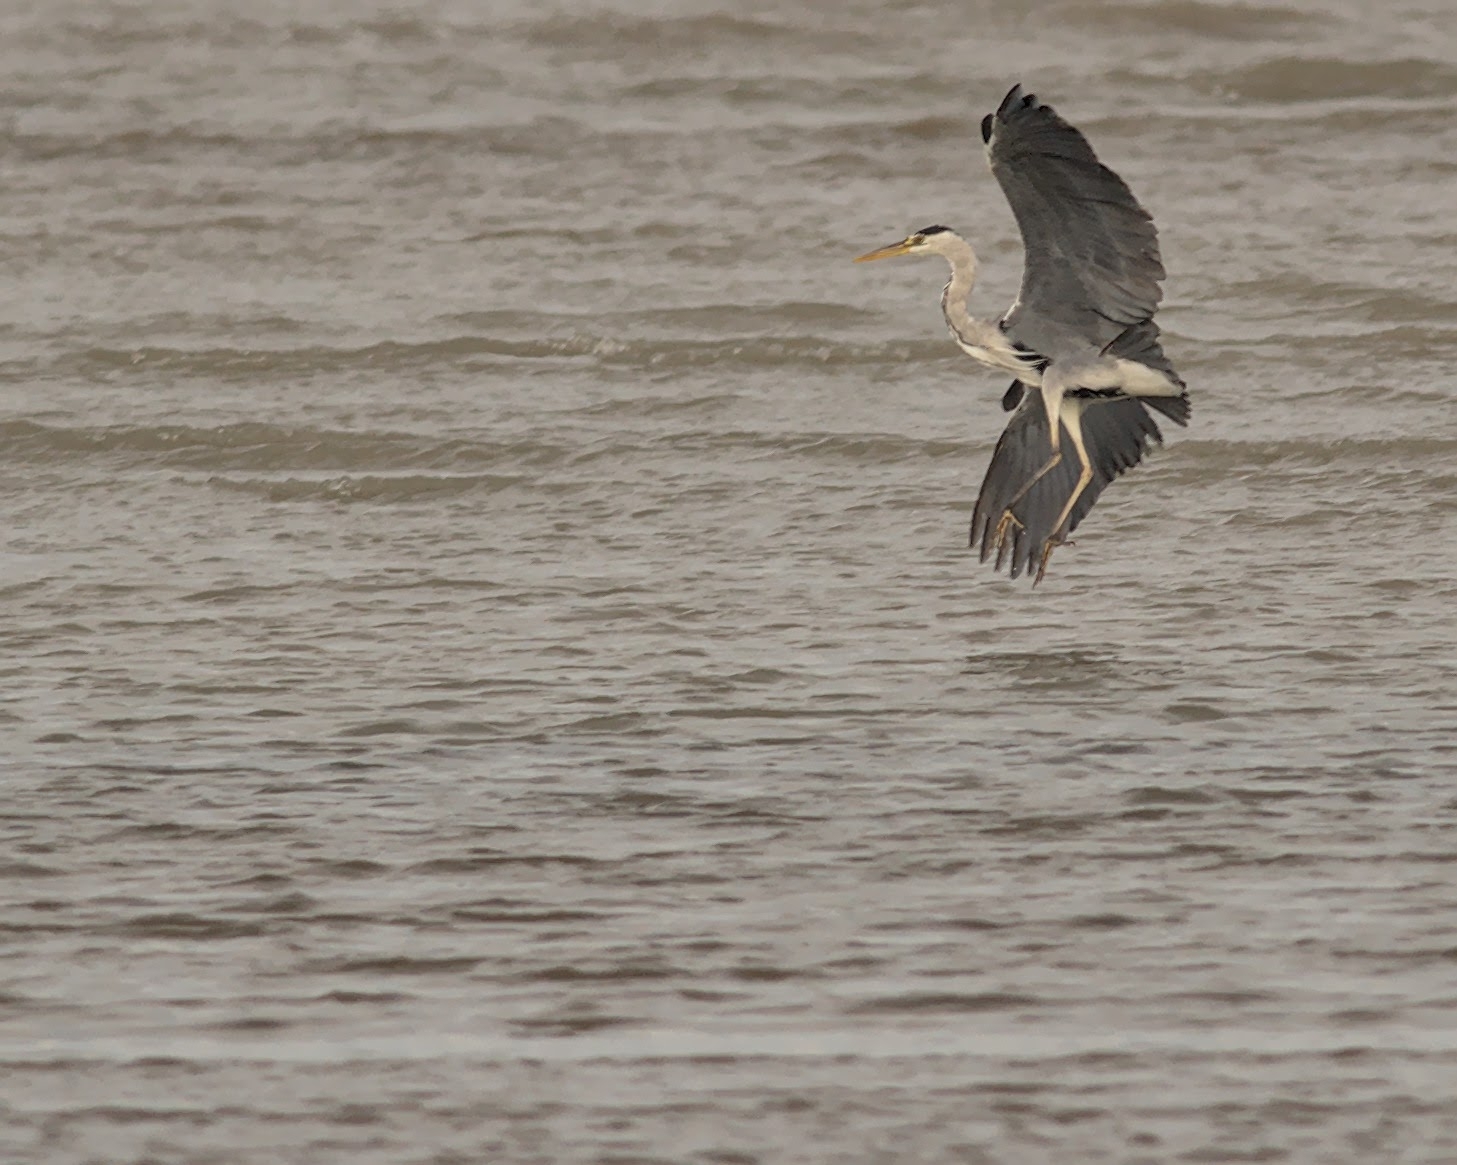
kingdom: Animalia
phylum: Chordata
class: Aves
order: Pelecaniformes
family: Ardeidae
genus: Ardea
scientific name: Ardea cinerea
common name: Grey heron
